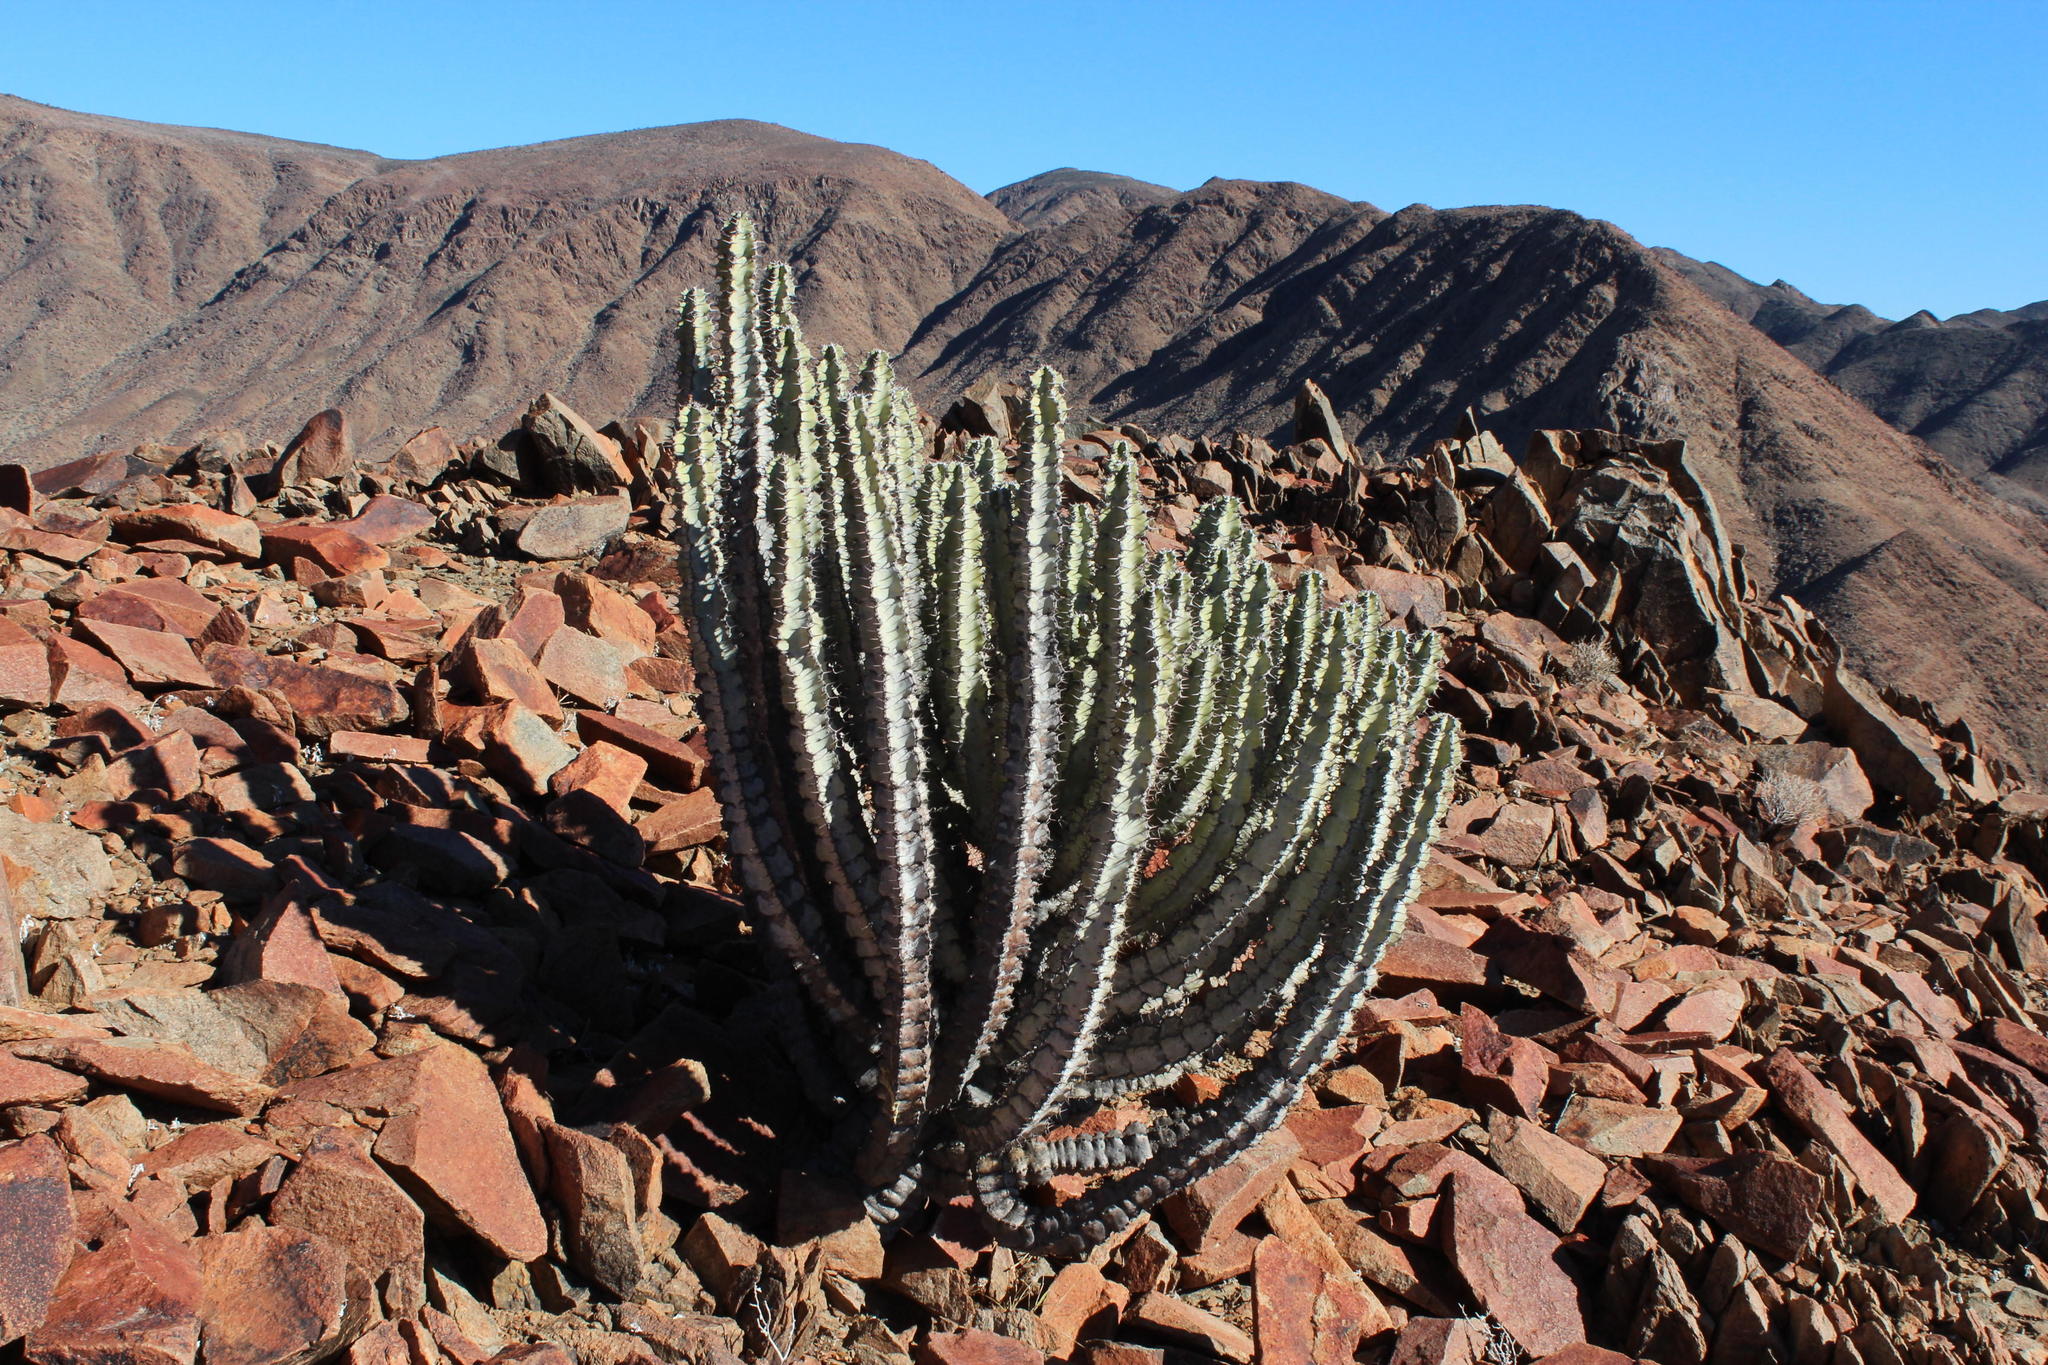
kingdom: Plantae
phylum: Tracheophyta
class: Magnoliopsida
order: Malpighiales
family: Euphorbiaceae
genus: Euphorbia
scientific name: Euphorbia virosa
